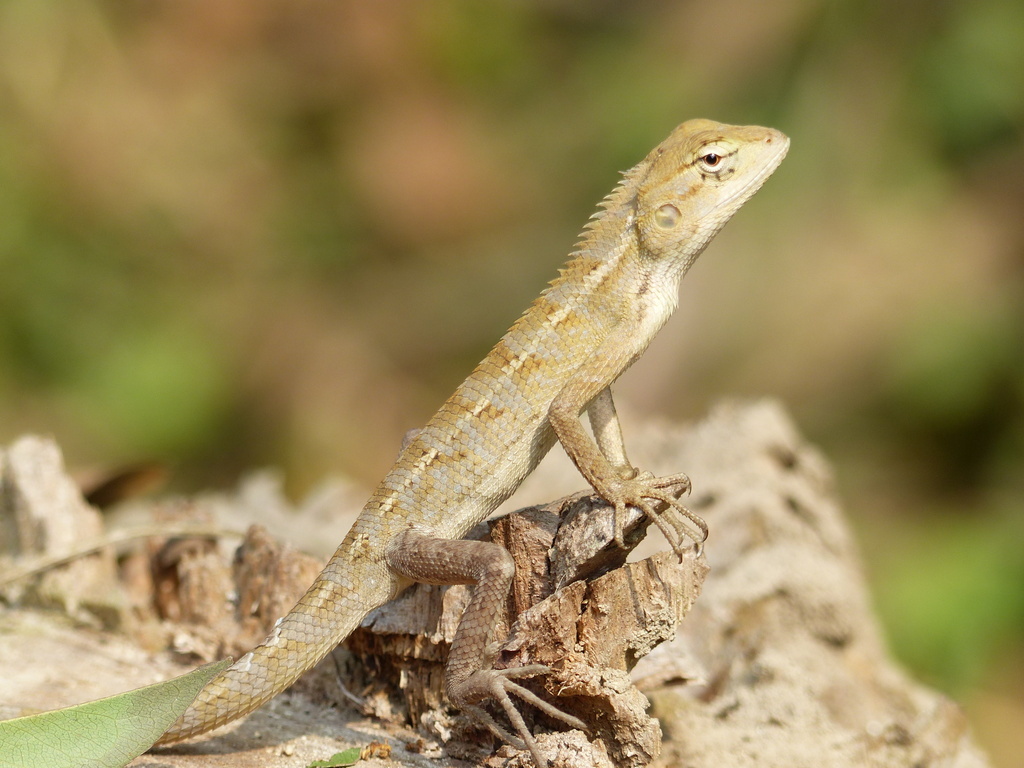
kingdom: Animalia
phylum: Chordata
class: Squamata
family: Agamidae
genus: Calotes
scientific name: Calotes versicolor
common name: Oriental garden lizard
